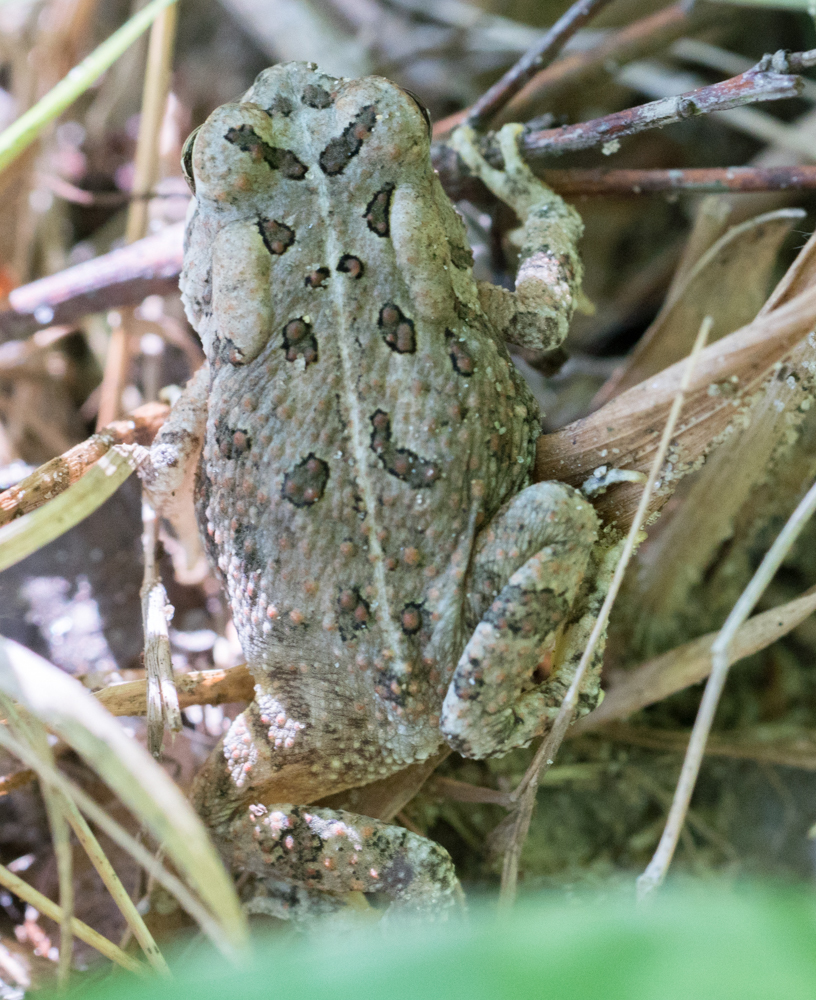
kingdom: Animalia
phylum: Chordata
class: Amphibia
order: Anura
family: Bufonidae
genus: Anaxyrus
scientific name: Anaxyrus fowleri
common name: Fowler's toad
